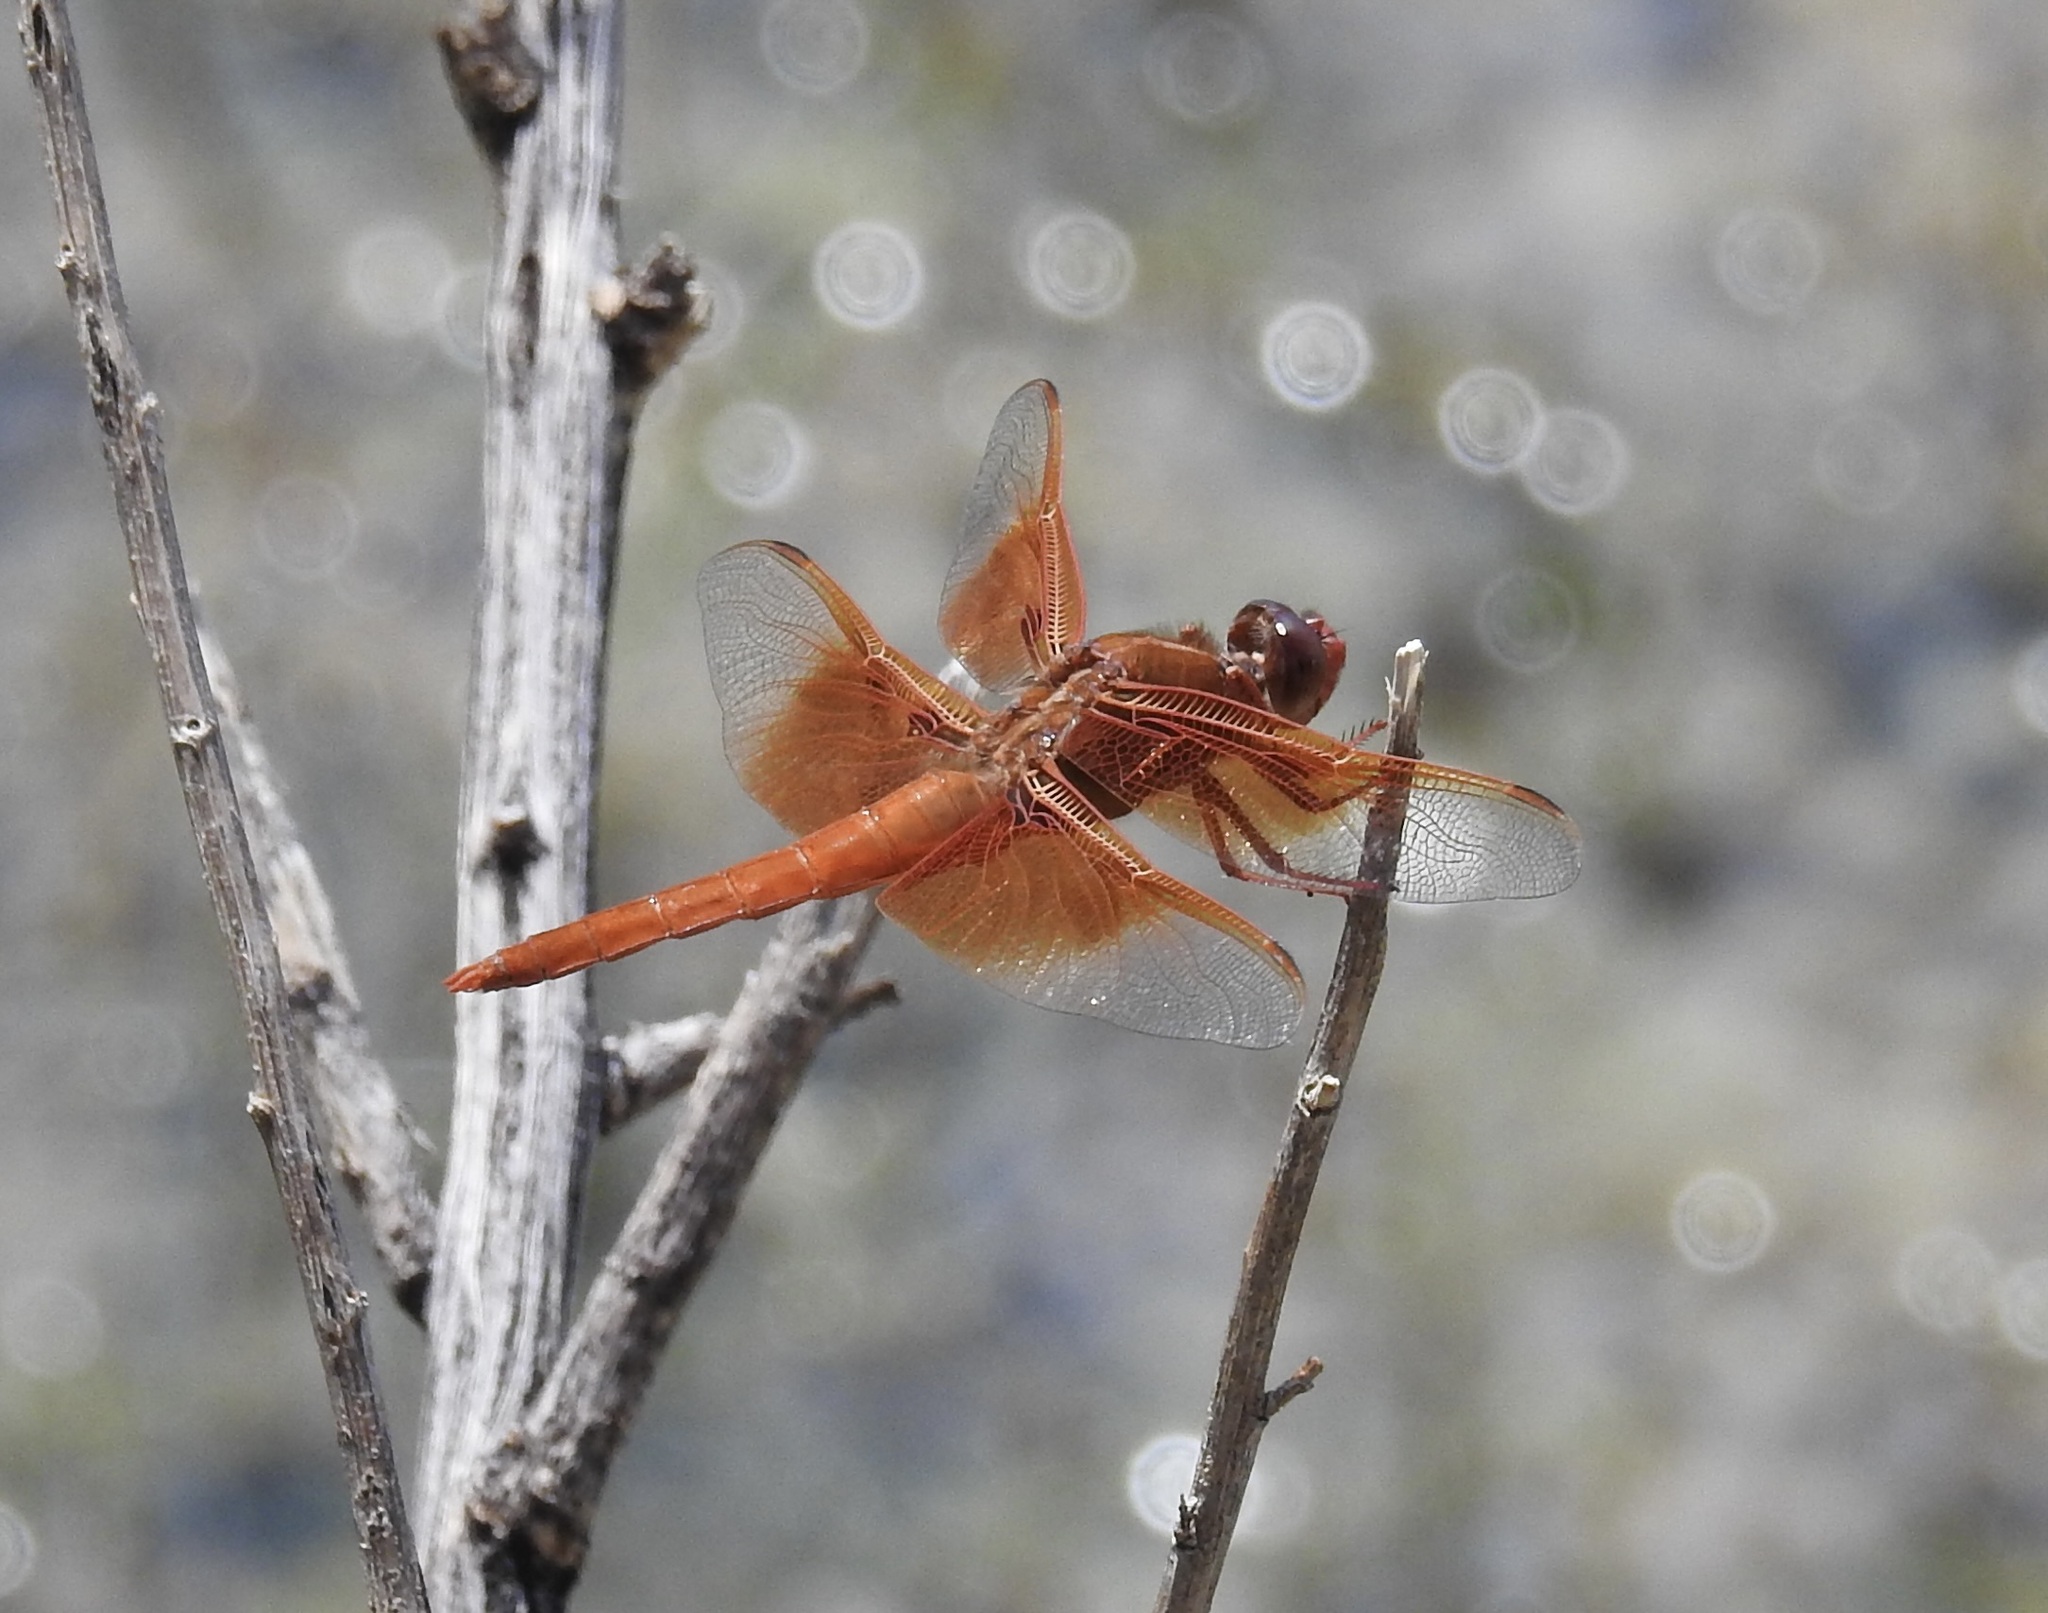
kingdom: Animalia
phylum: Arthropoda
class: Insecta
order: Odonata
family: Libellulidae
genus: Libellula
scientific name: Libellula saturata
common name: Flame skimmer
